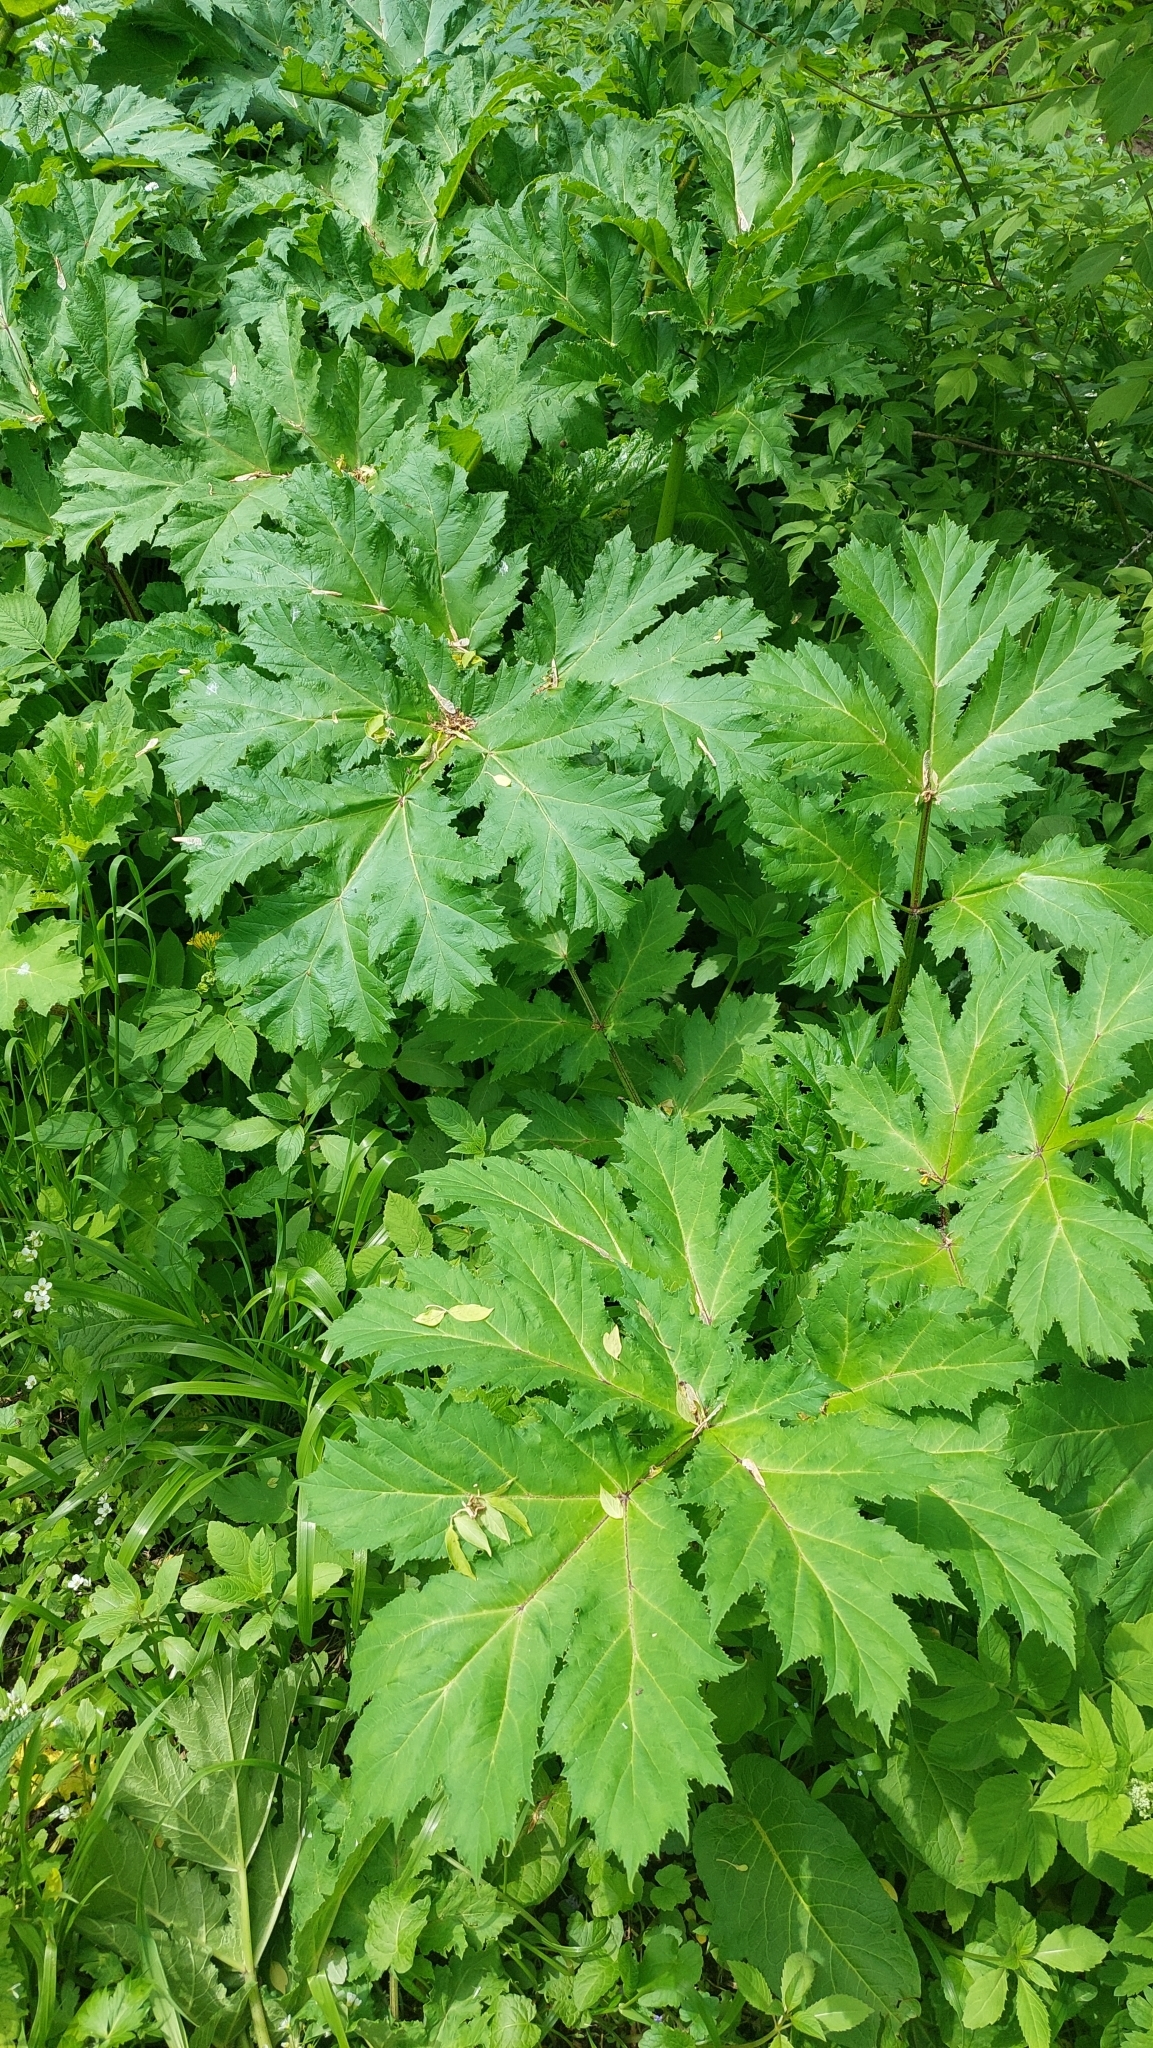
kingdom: Plantae
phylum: Tracheophyta
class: Magnoliopsida
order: Apiales
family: Apiaceae
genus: Heracleum
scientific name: Heracleum sosnowskyi
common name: Sosnowsky's hogweed
